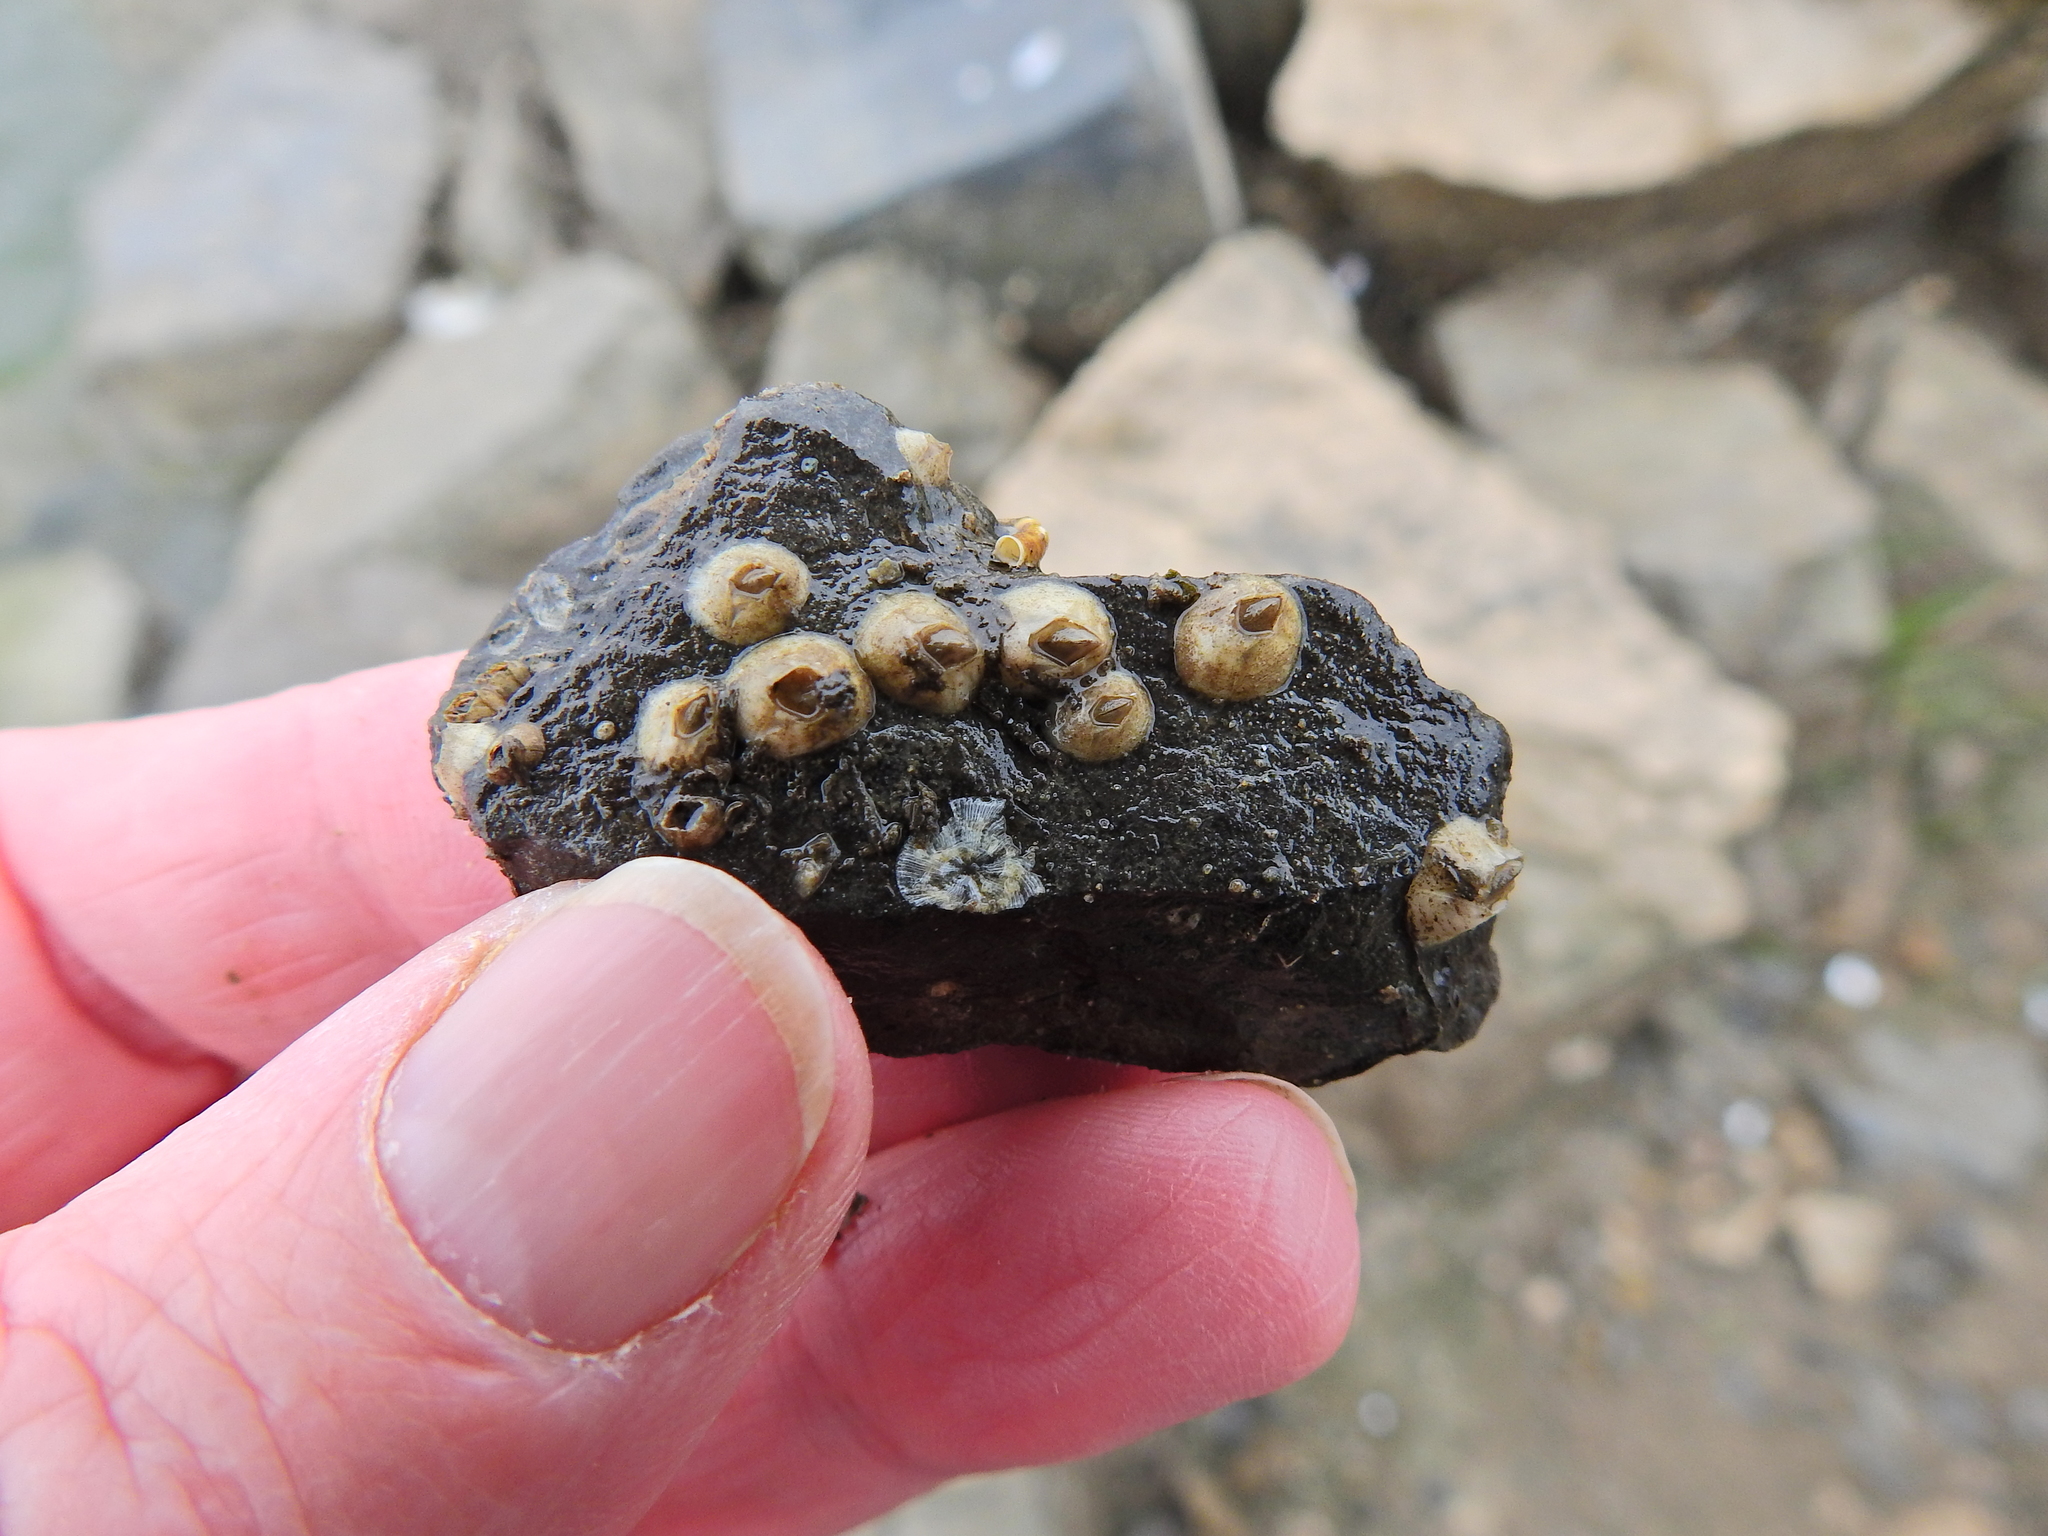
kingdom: Animalia
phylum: Arthropoda
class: Maxillopoda
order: Sessilia
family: Balanidae
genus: Amphibalanus
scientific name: Amphibalanus improvisus
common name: Bay barnacle
